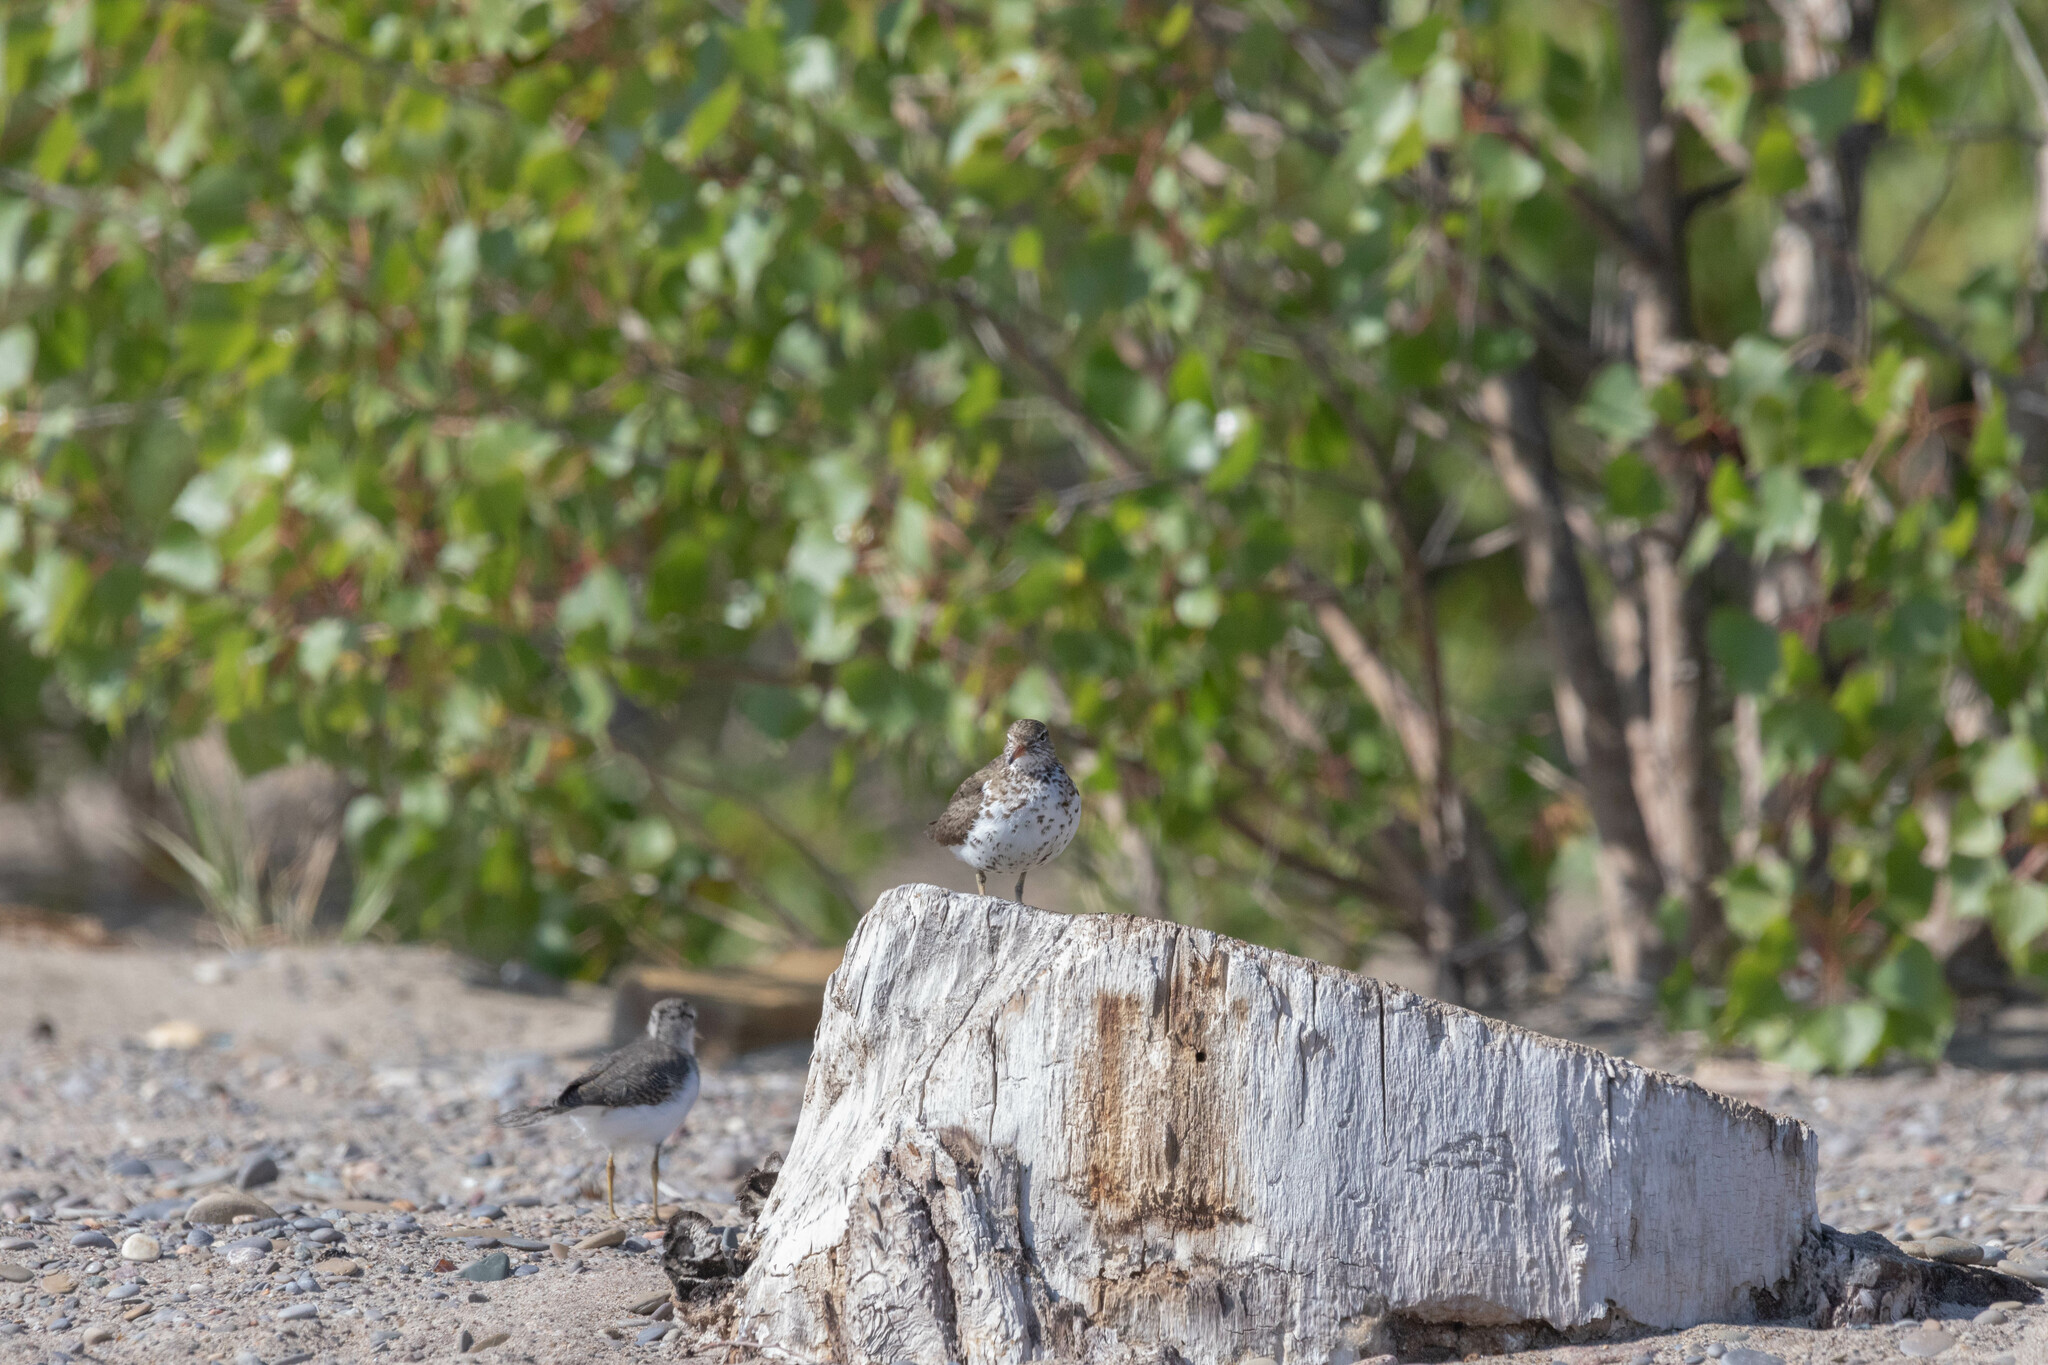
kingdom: Animalia
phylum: Chordata
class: Aves
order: Charadriiformes
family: Scolopacidae
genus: Actitis
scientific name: Actitis macularius
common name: Spotted sandpiper
